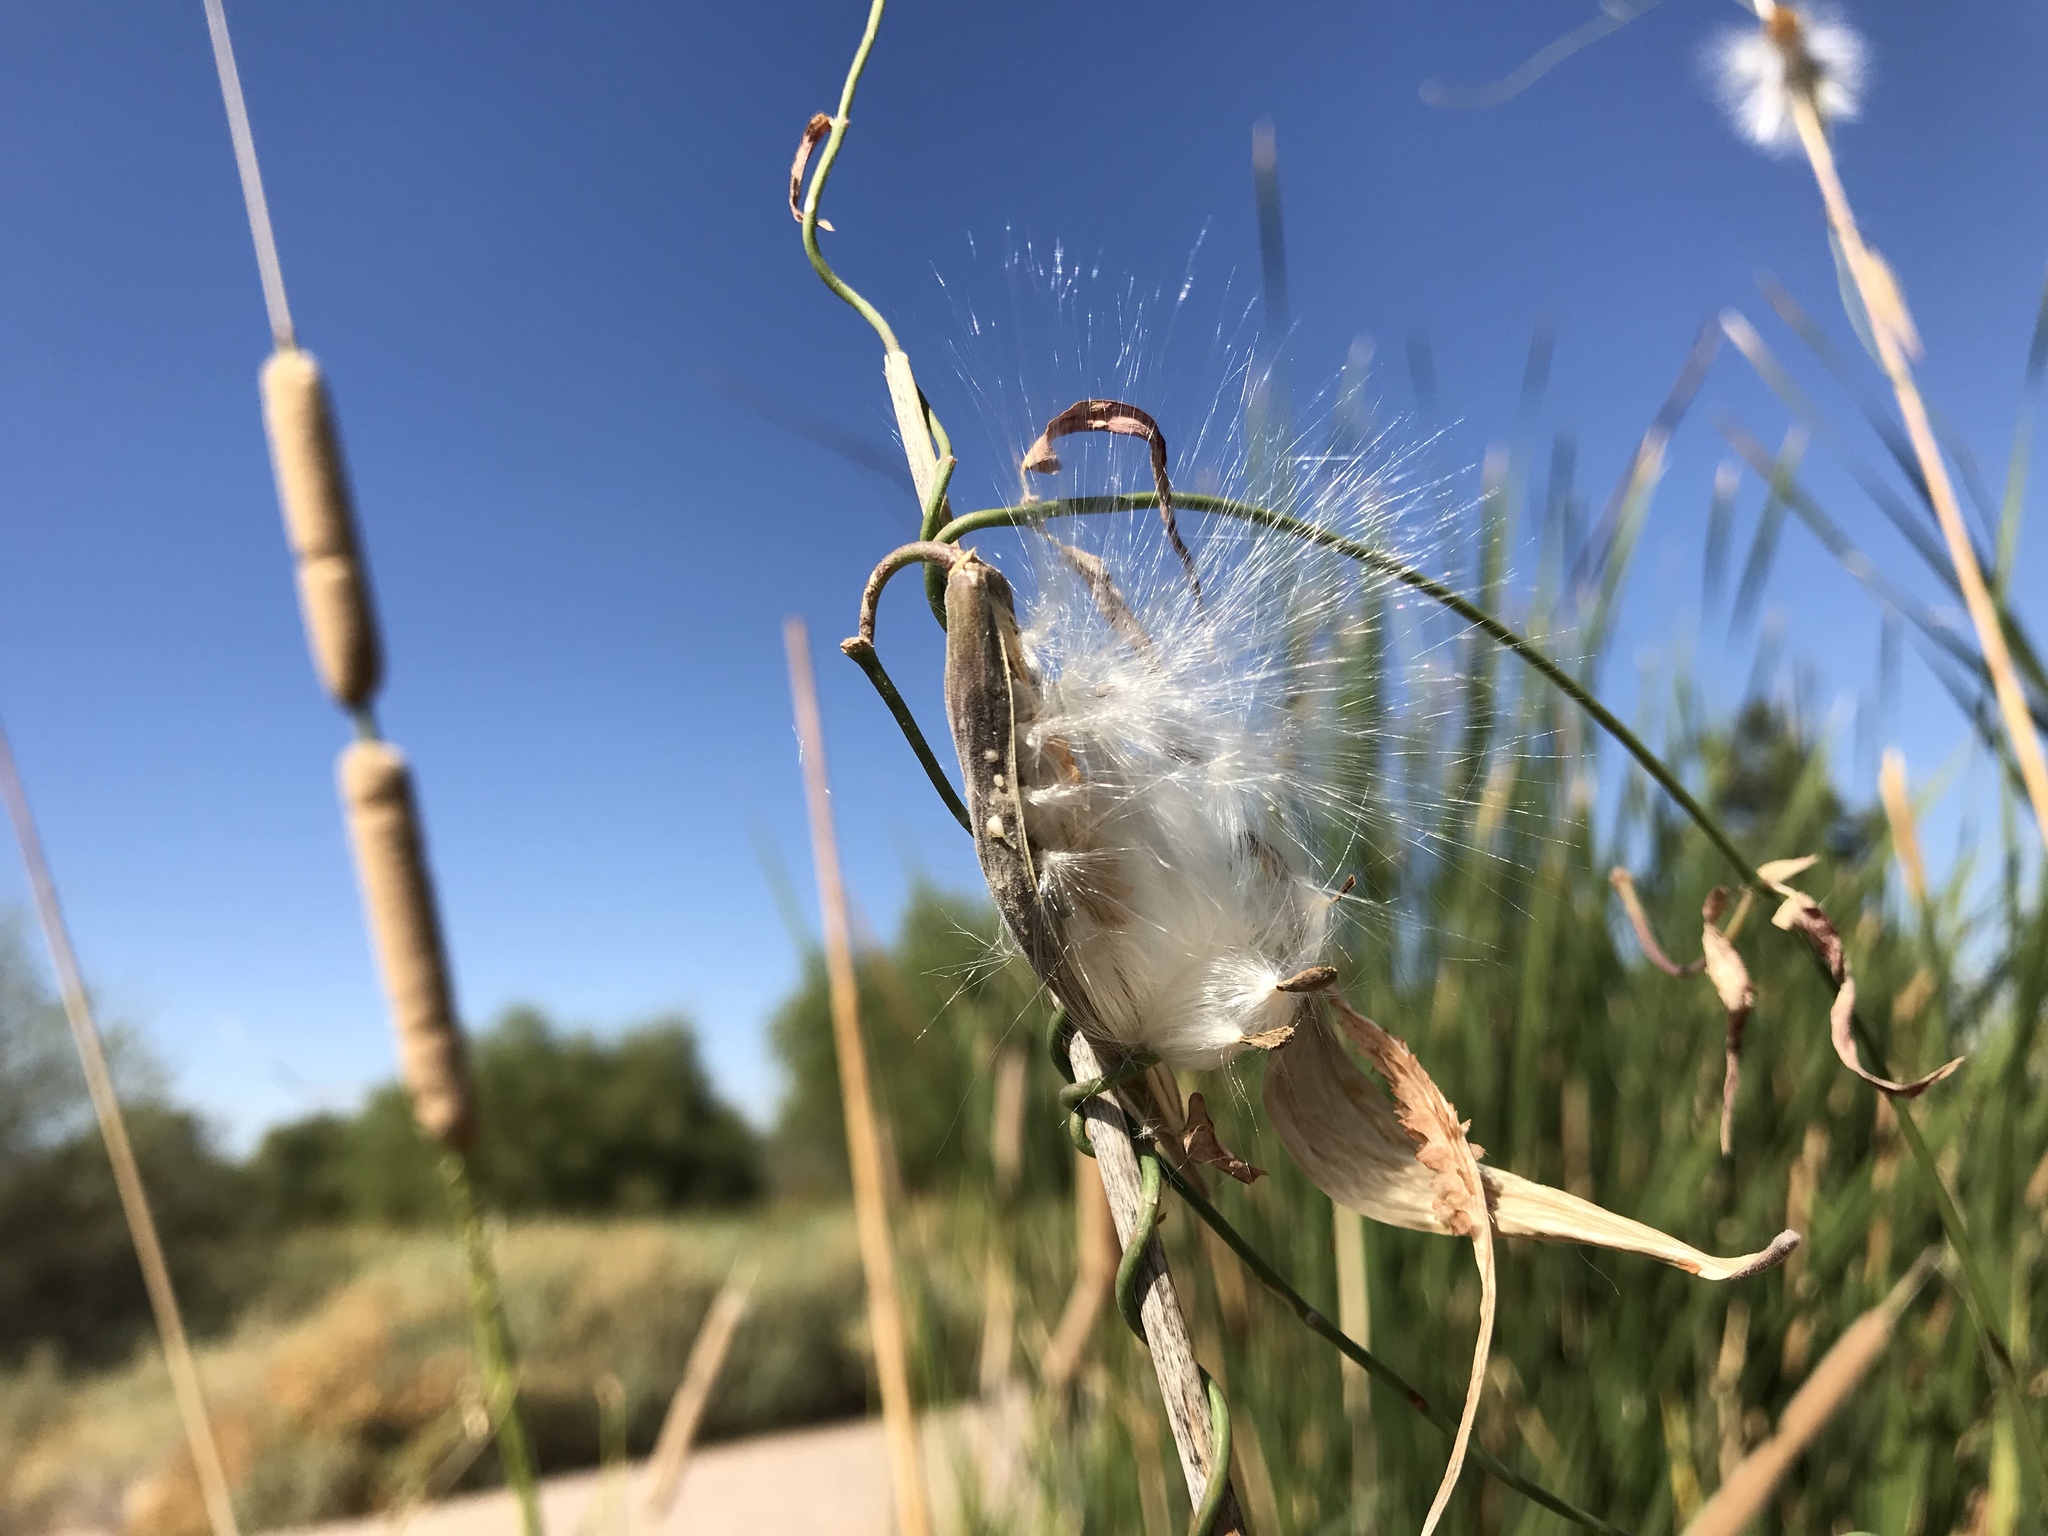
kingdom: Plantae
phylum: Tracheophyta
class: Magnoliopsida
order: Gentianales
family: Apocynaceae
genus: Funastrum
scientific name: Funastrum heterophyllum
